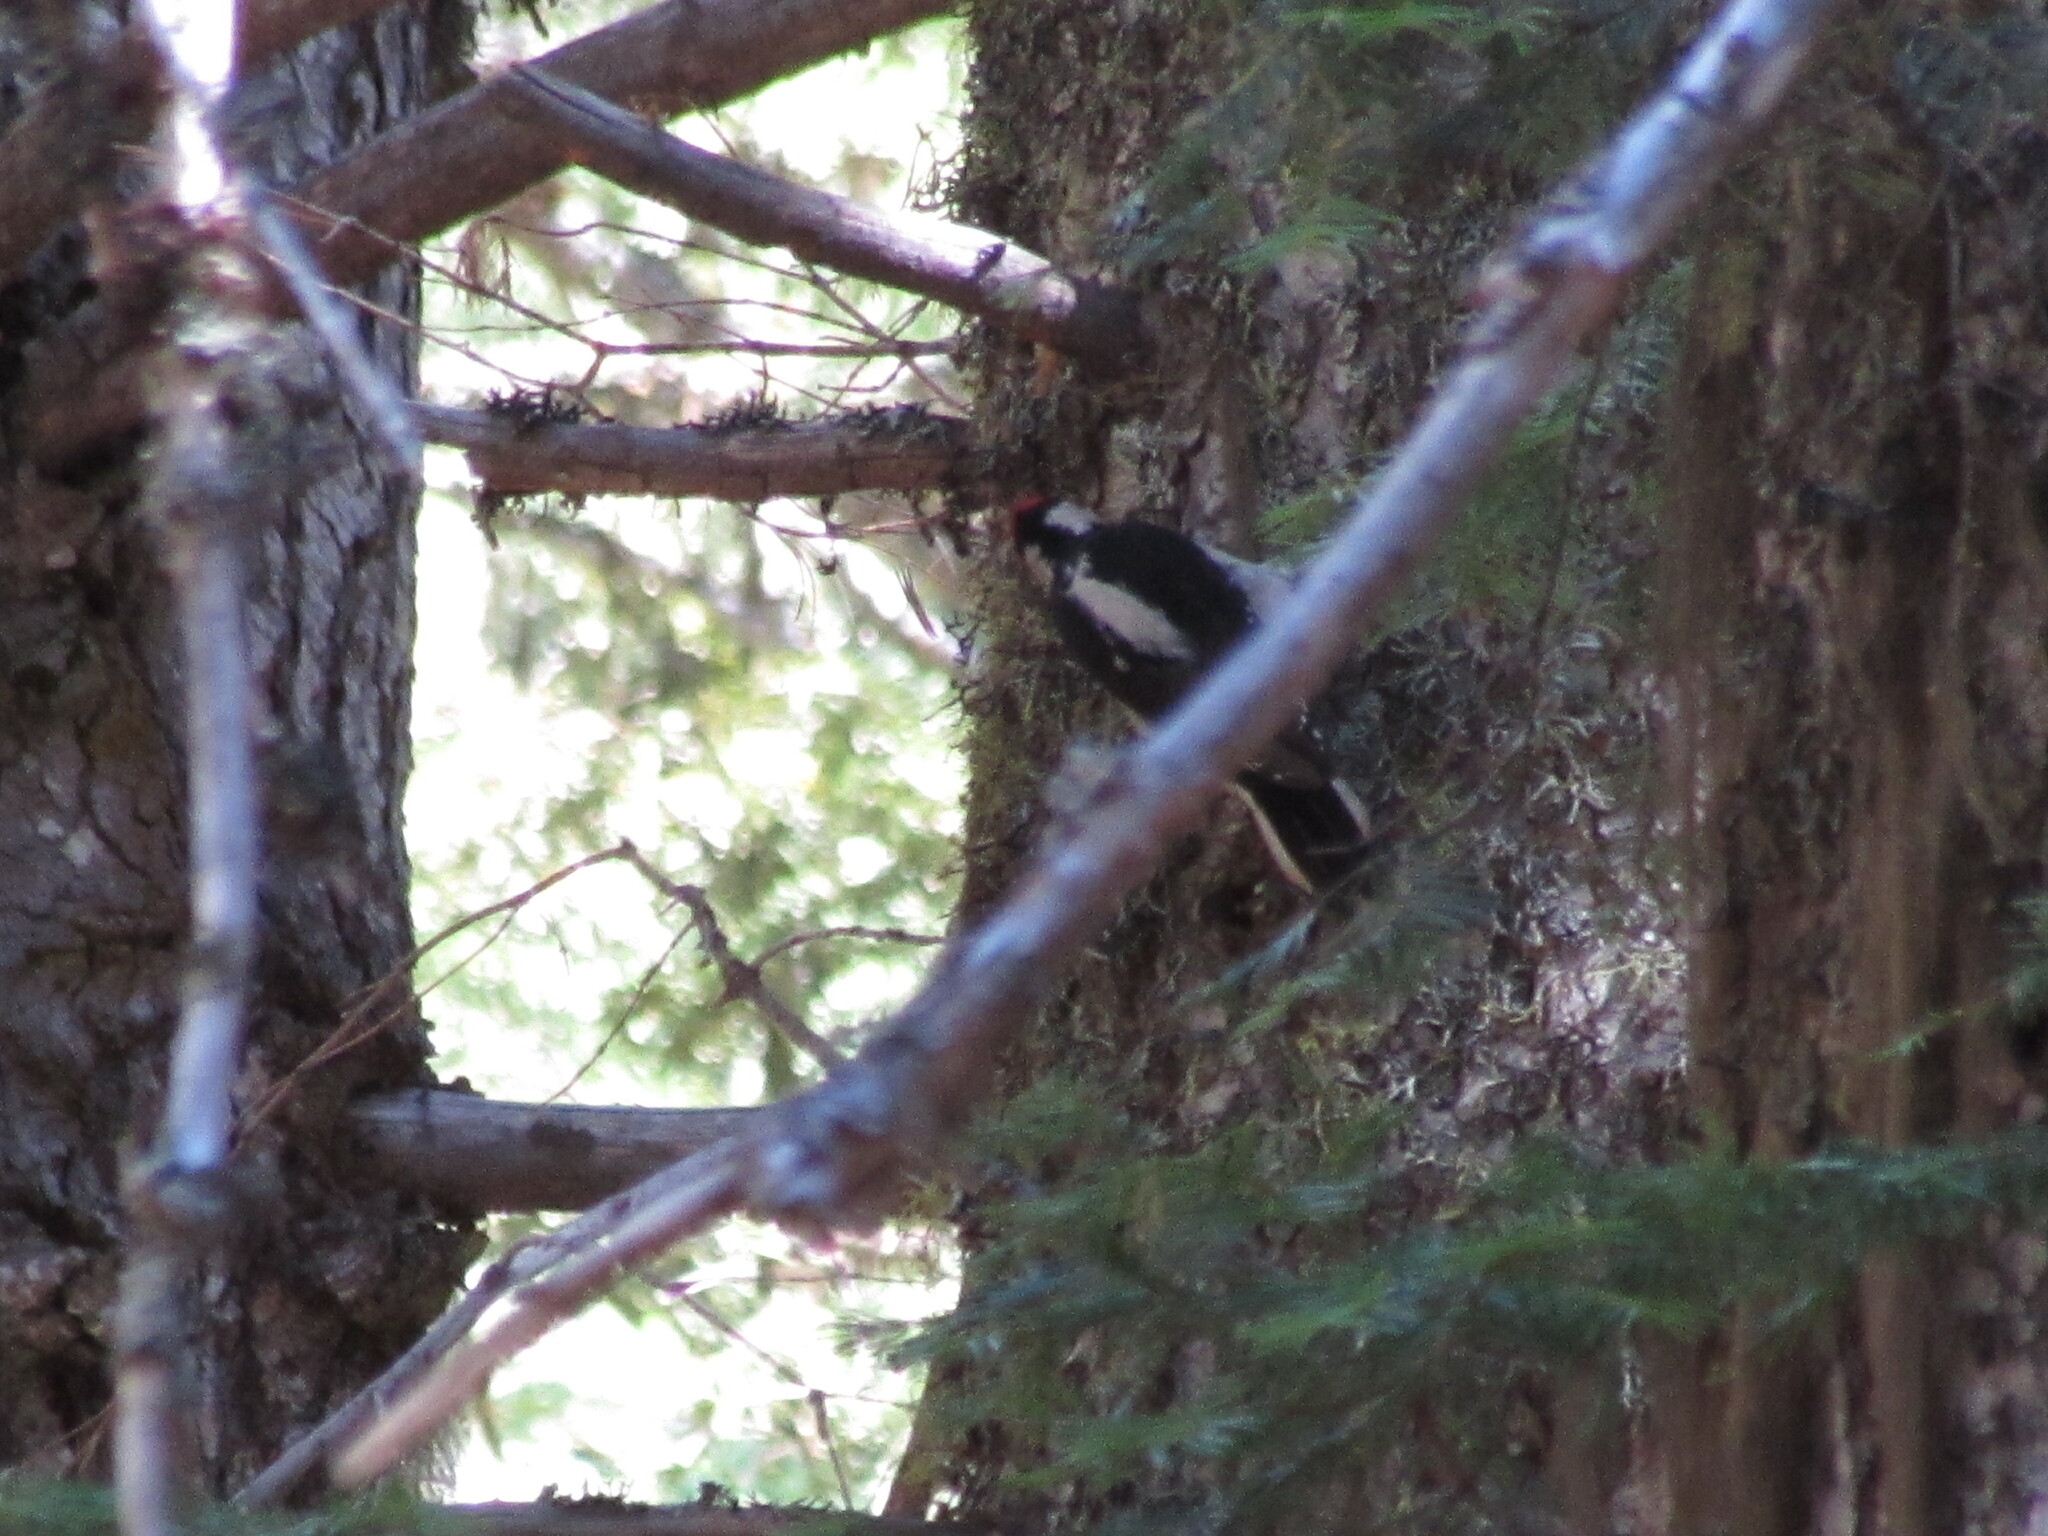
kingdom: Animalia
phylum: Chordata
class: Aves
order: Piciformes
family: Picidae
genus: Leuconotopicus
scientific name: Leuconotopicus villosus
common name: Hairy woodpecker
